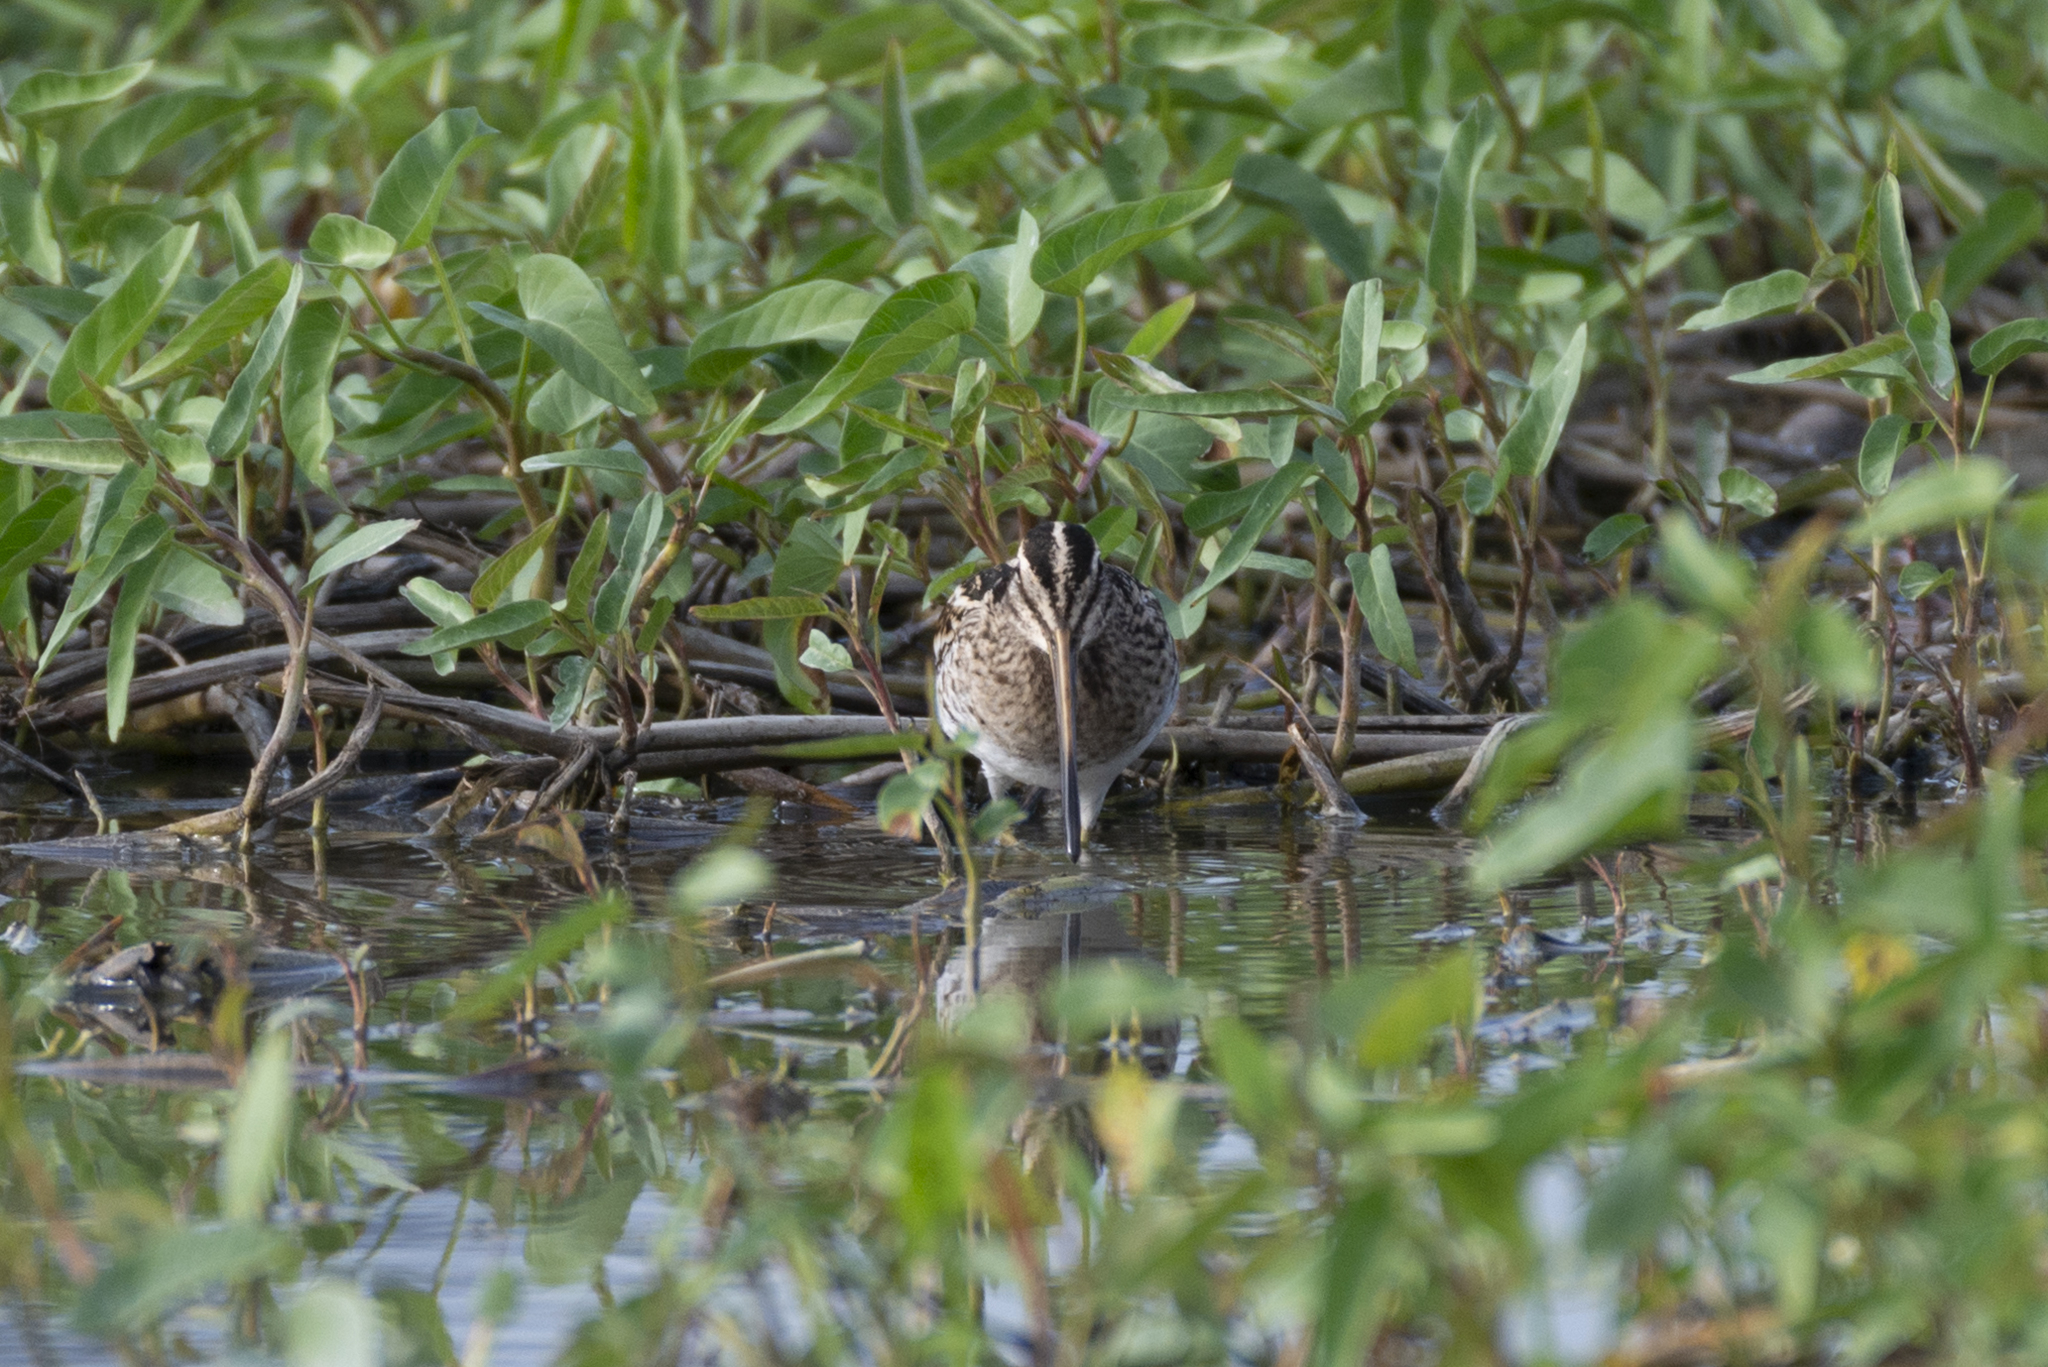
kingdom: Animalia
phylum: Chordata
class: Aves
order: Charadriiformes
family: Scolopacidae
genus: Gallinago
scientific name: Gallinago gallinago
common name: Common snipe
